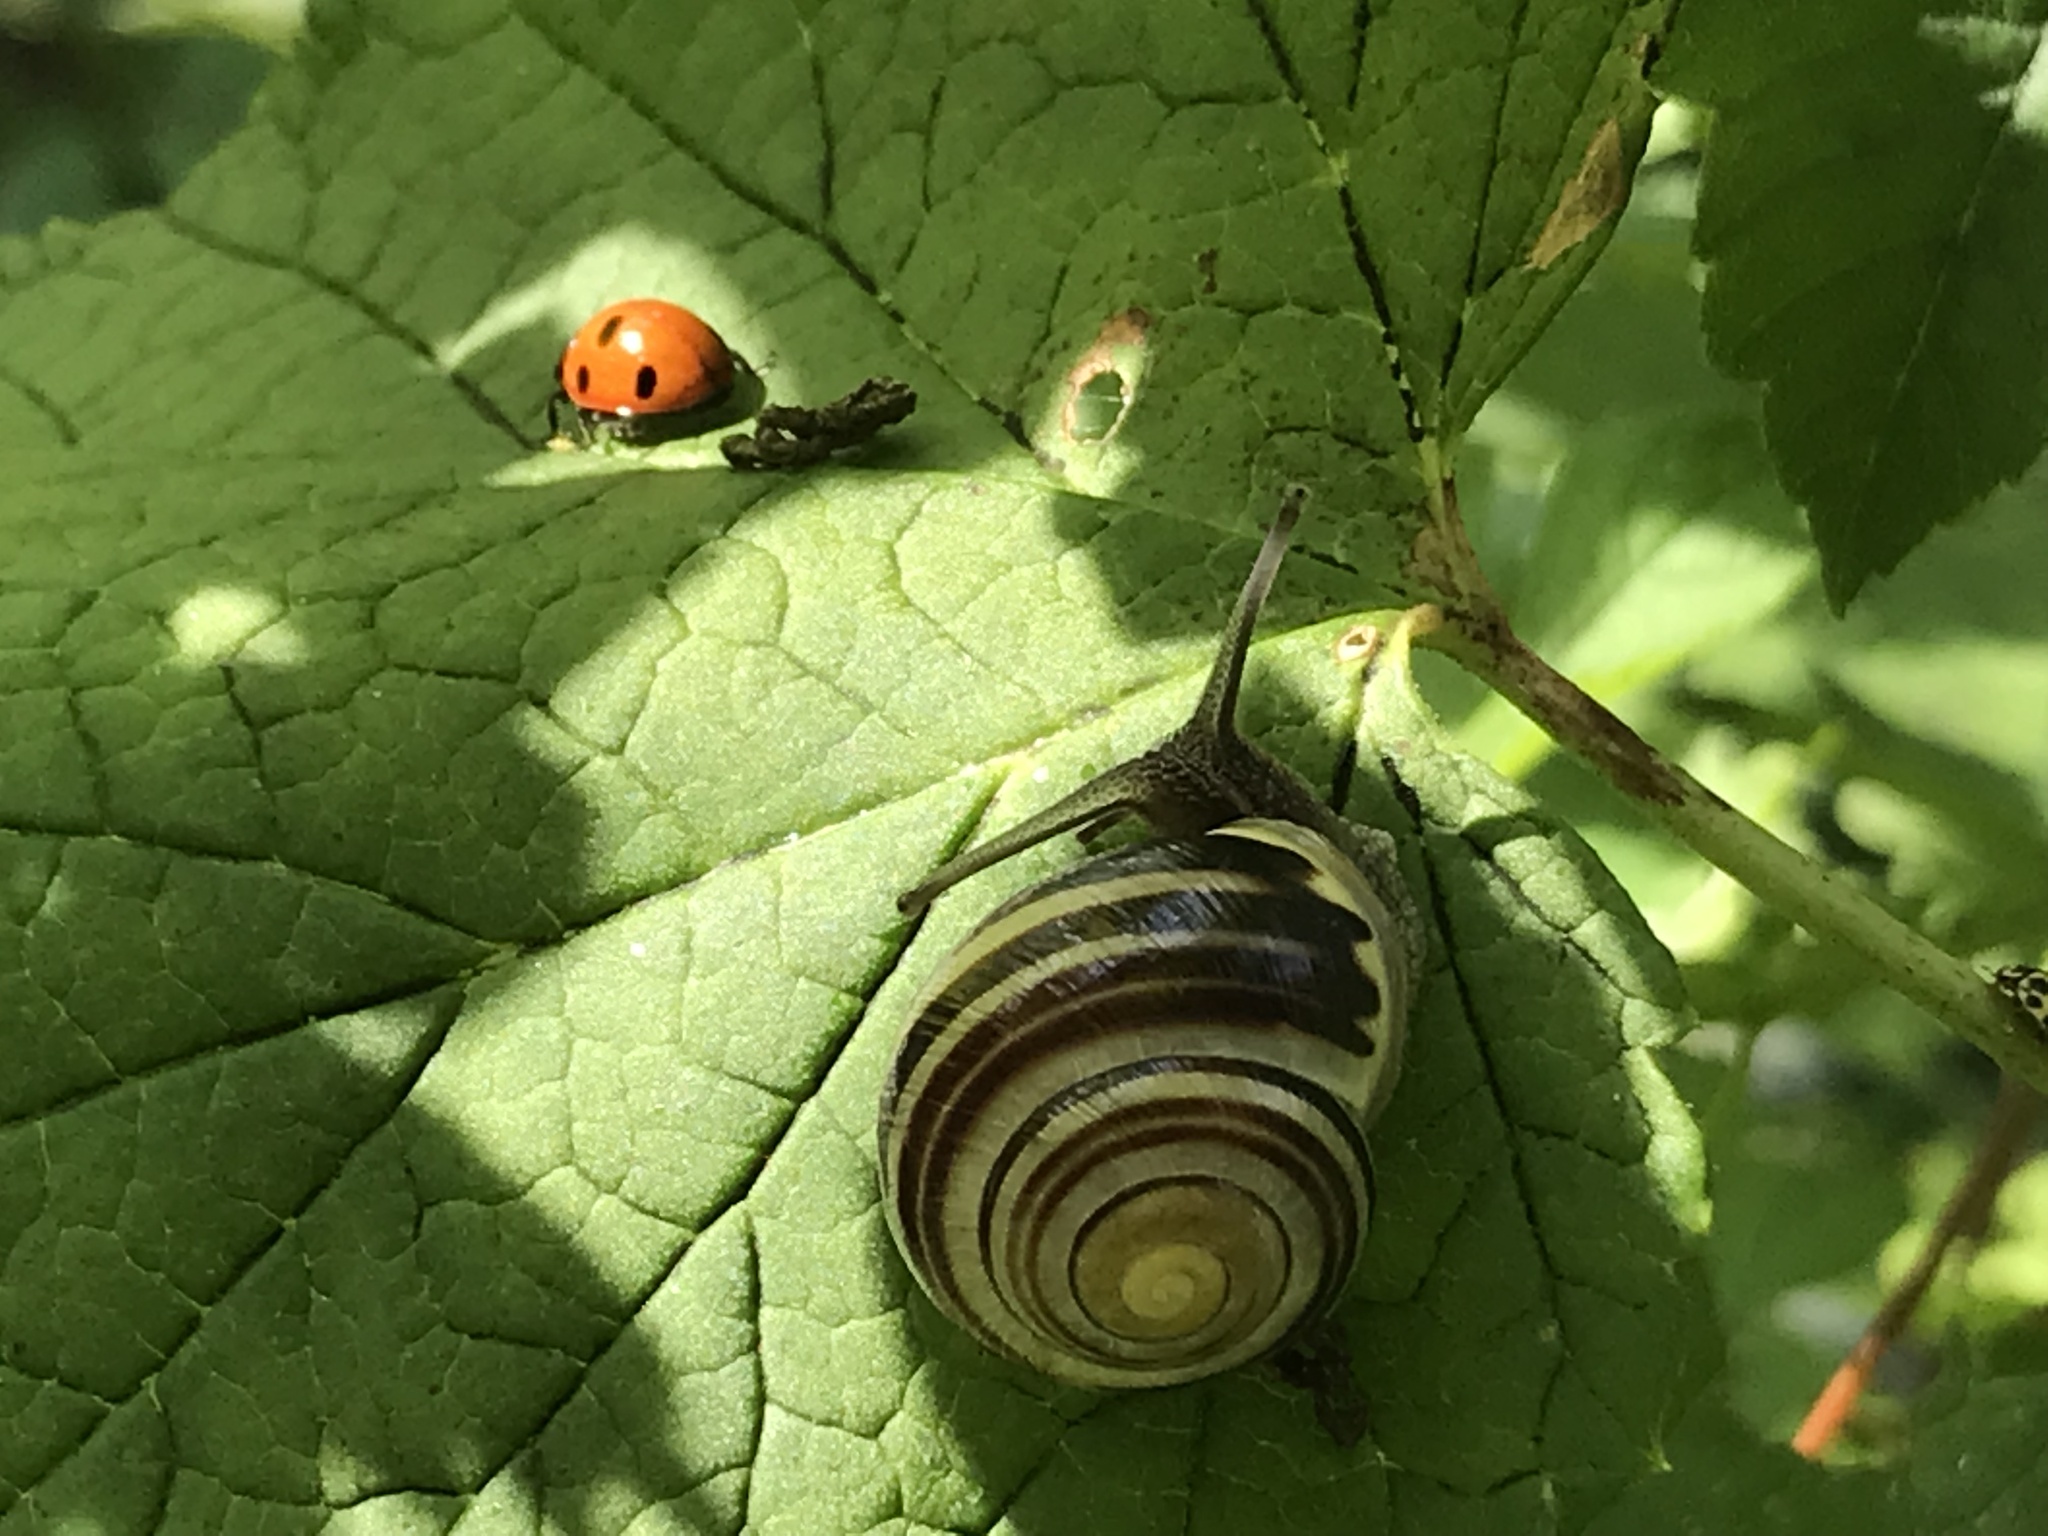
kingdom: Animalia
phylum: Mollusca
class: Gastropoda
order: Stylommatophora
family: Helicidae
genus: Cepaea
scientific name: Cepaea hortensis
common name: White-lip gardensnail
